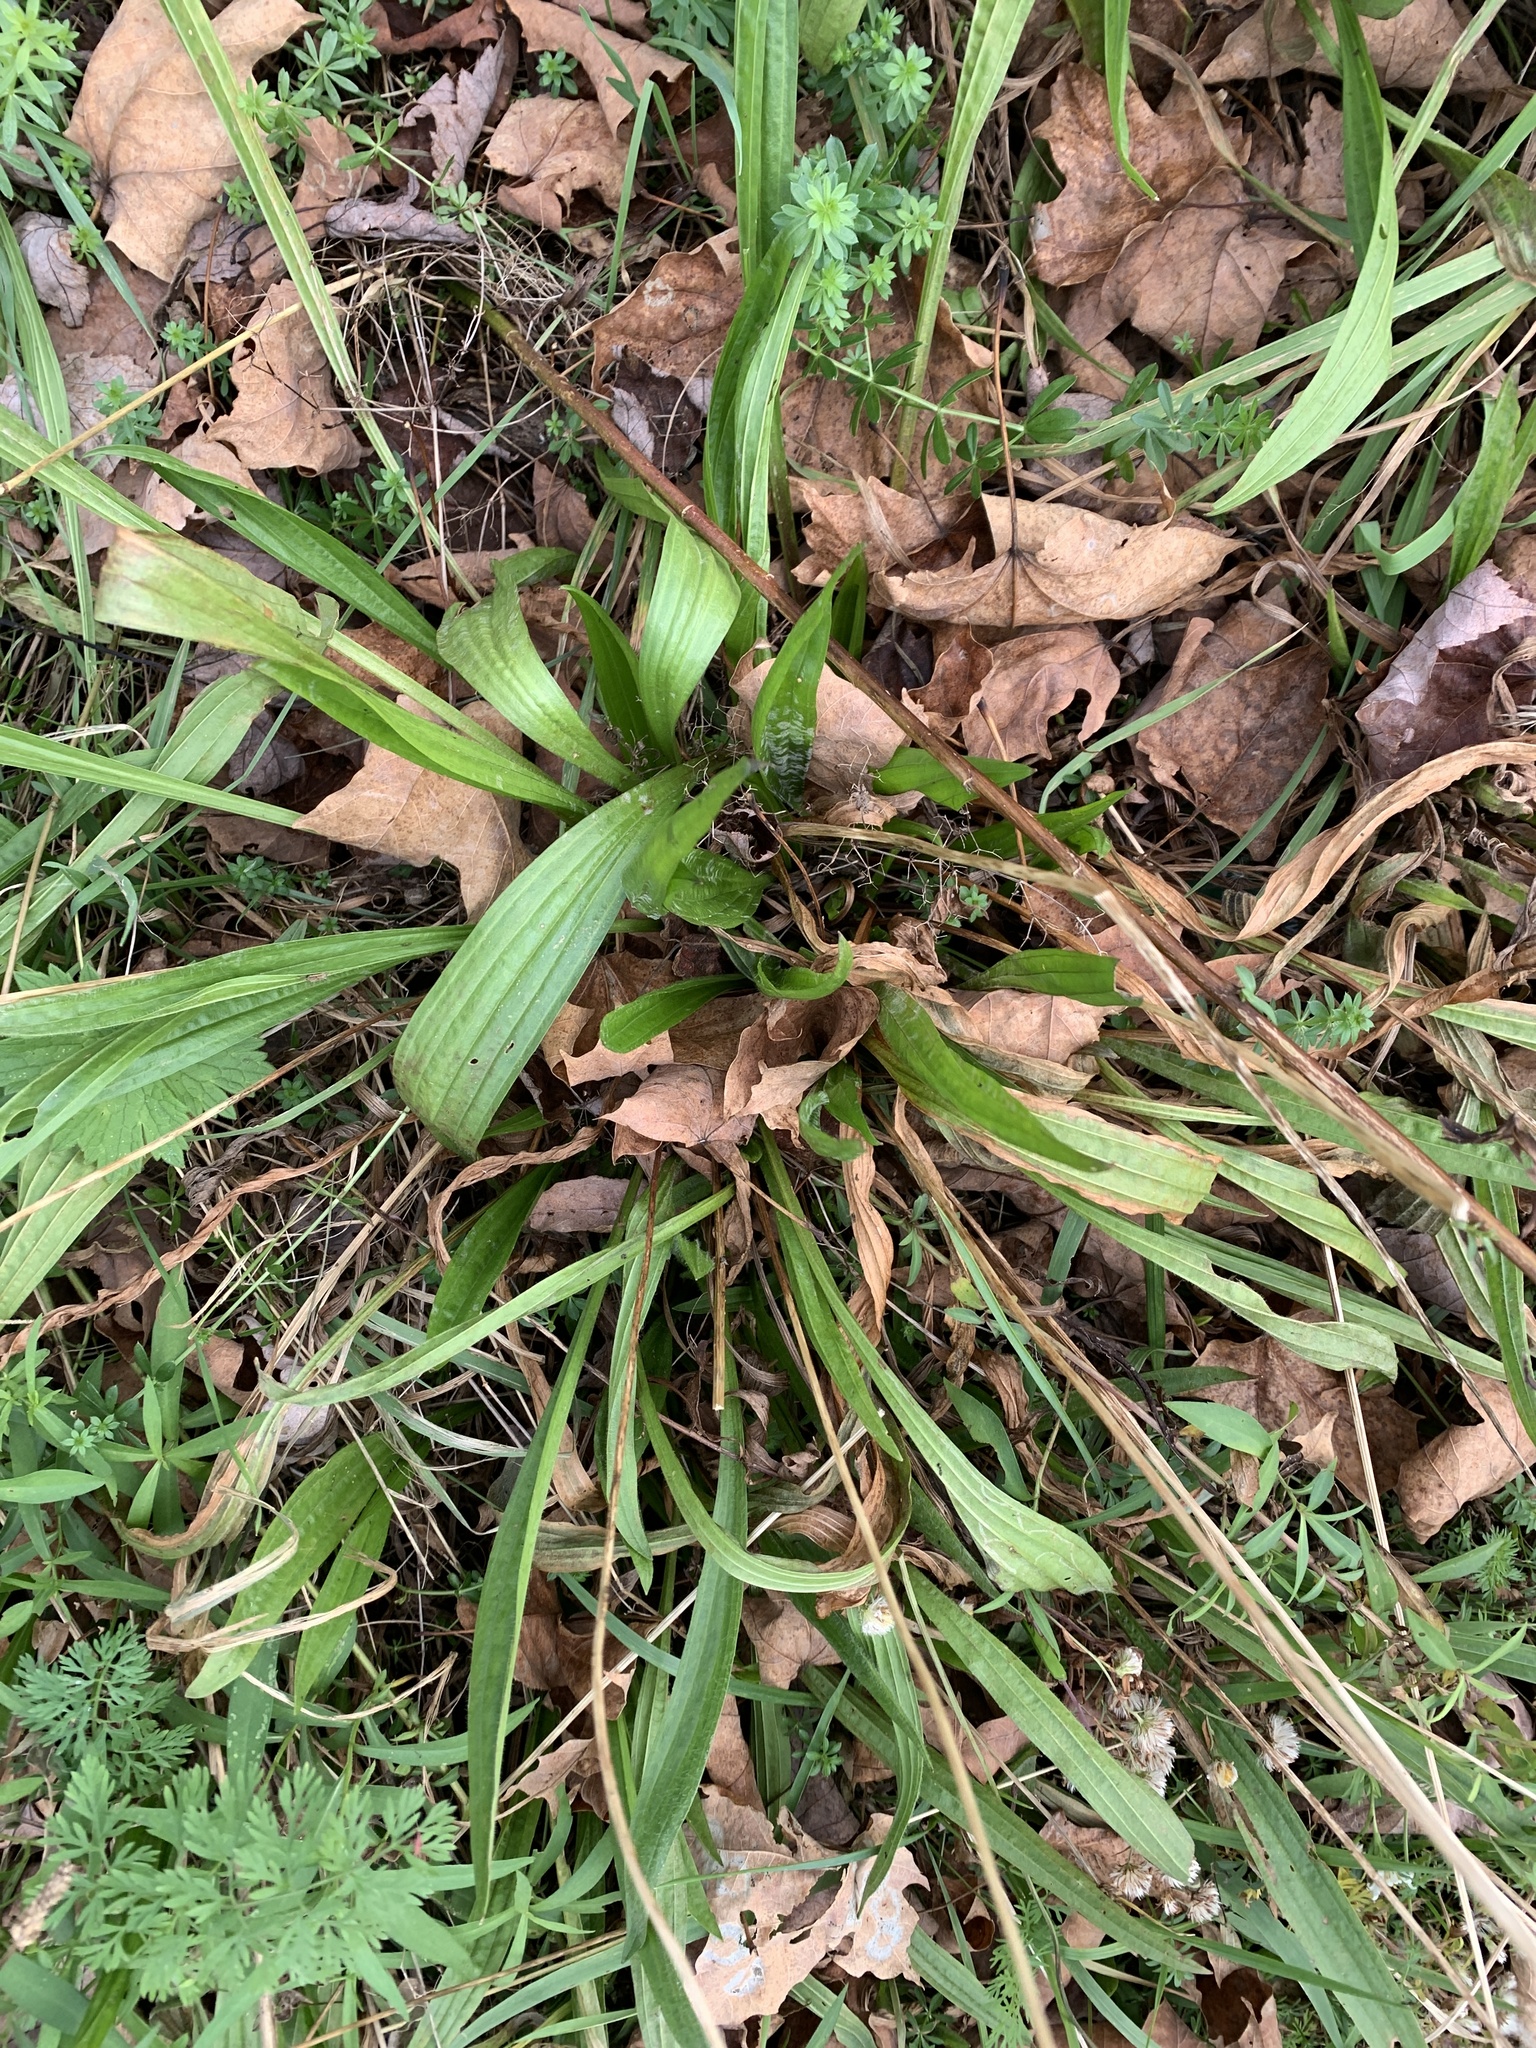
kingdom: Plantae
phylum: Tracheophyta
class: Magnoliopsida
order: Lamiales
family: Plantaginaceae
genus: Plantago
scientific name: Plantago lanceolata
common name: Ribwort plantain
